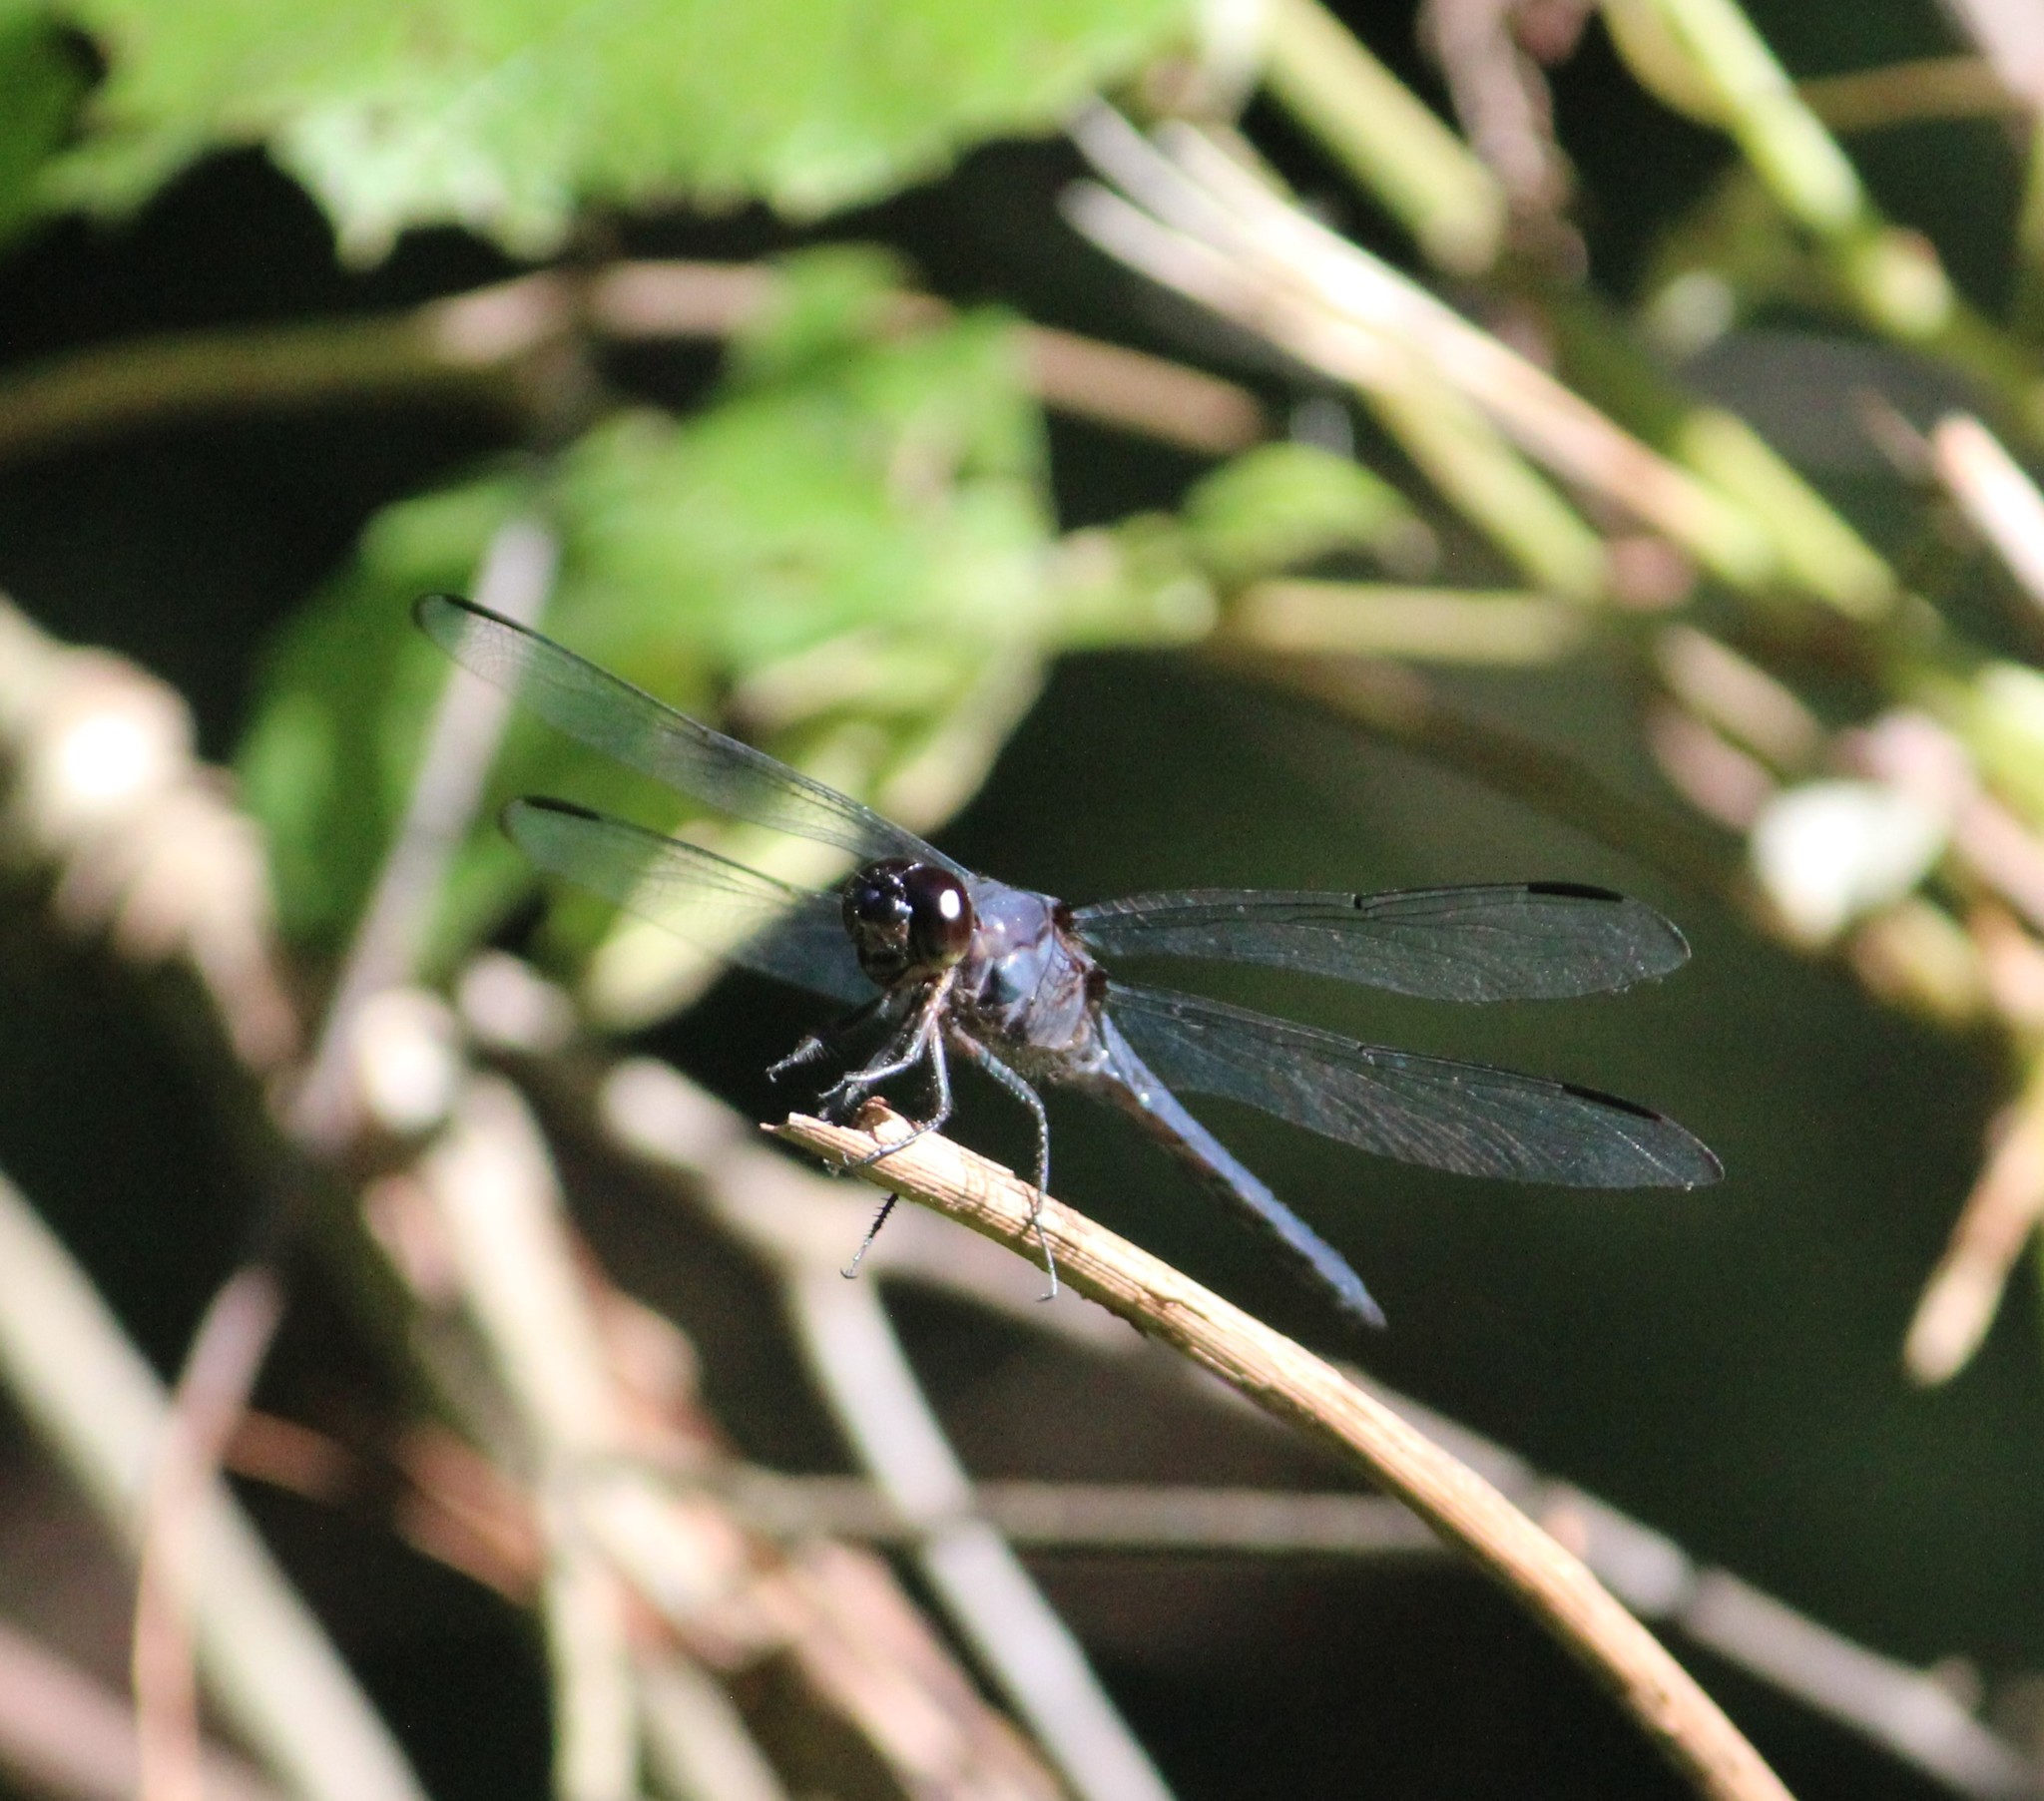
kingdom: Animalia
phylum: Arthropoda
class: Insecta
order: Odonata
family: Libellulidae
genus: Libellula
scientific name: Libellula incesta
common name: Slaty skimmer
